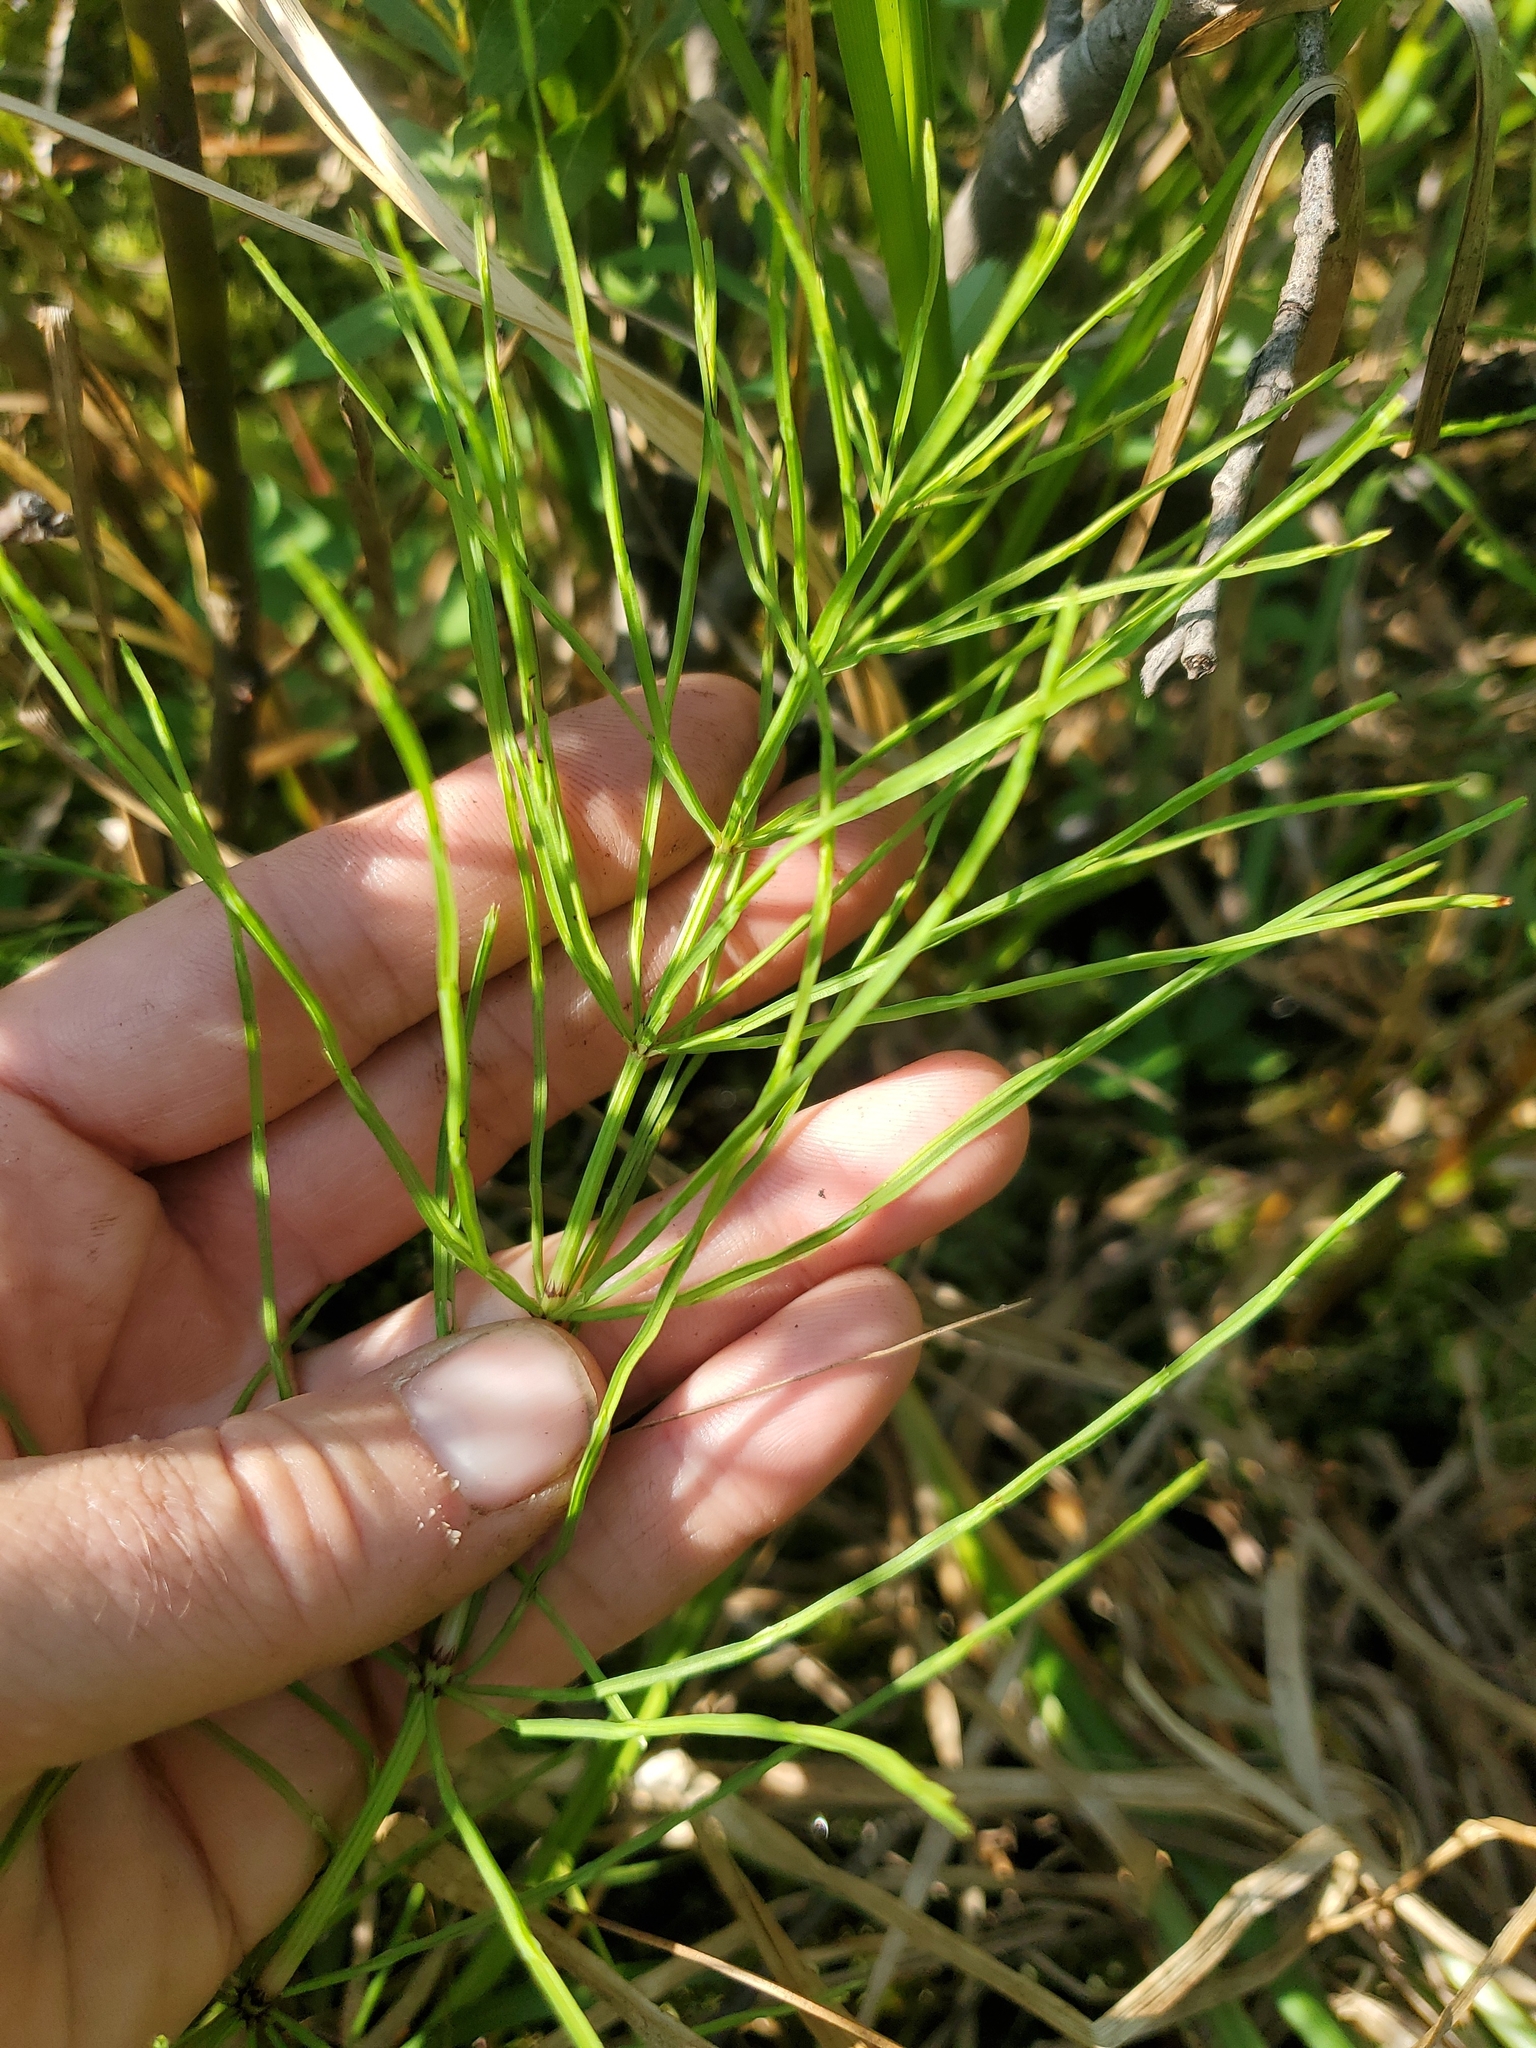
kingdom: Plantae
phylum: Tracheophyta
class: Polypodiopsida
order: Equisetales
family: Equisetaceae
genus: Equisetum
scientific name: Equisetum arvense
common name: Field horsetail
